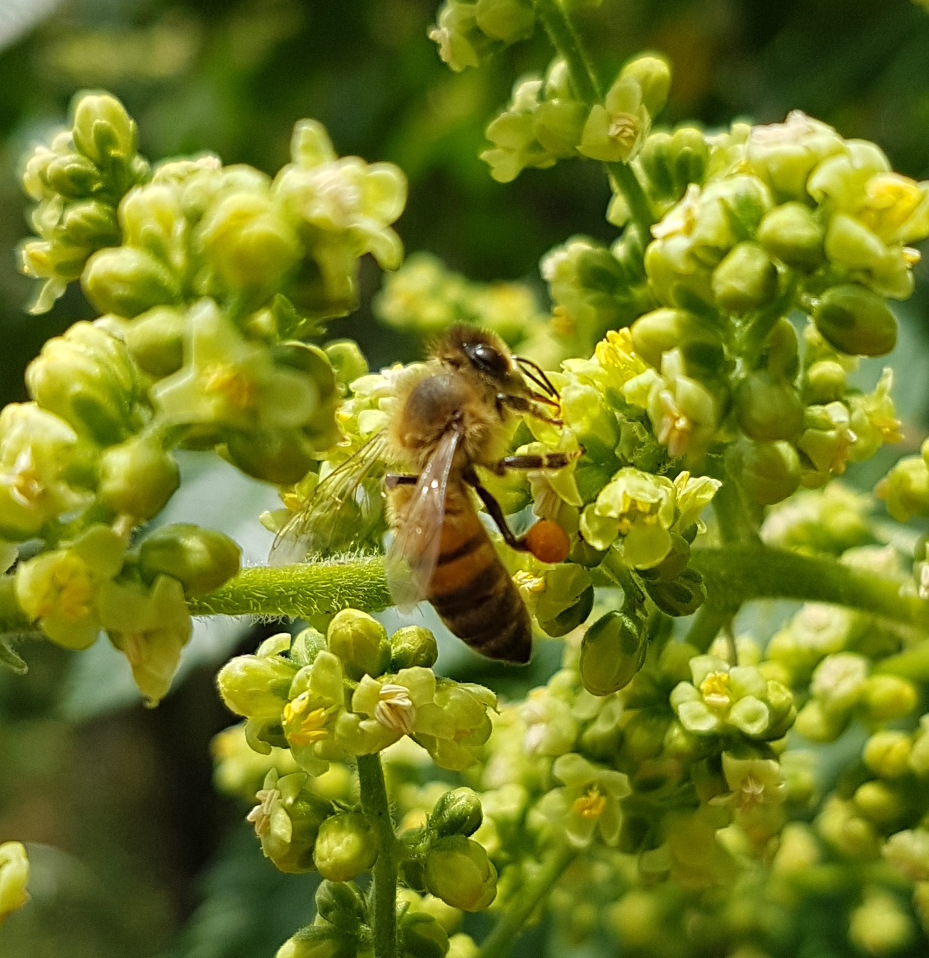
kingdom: Animalia
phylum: Arthropoda
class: Insecta
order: Hymenoptera
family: Apidae
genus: Apis
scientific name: Apis mellifera
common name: Honey bee
